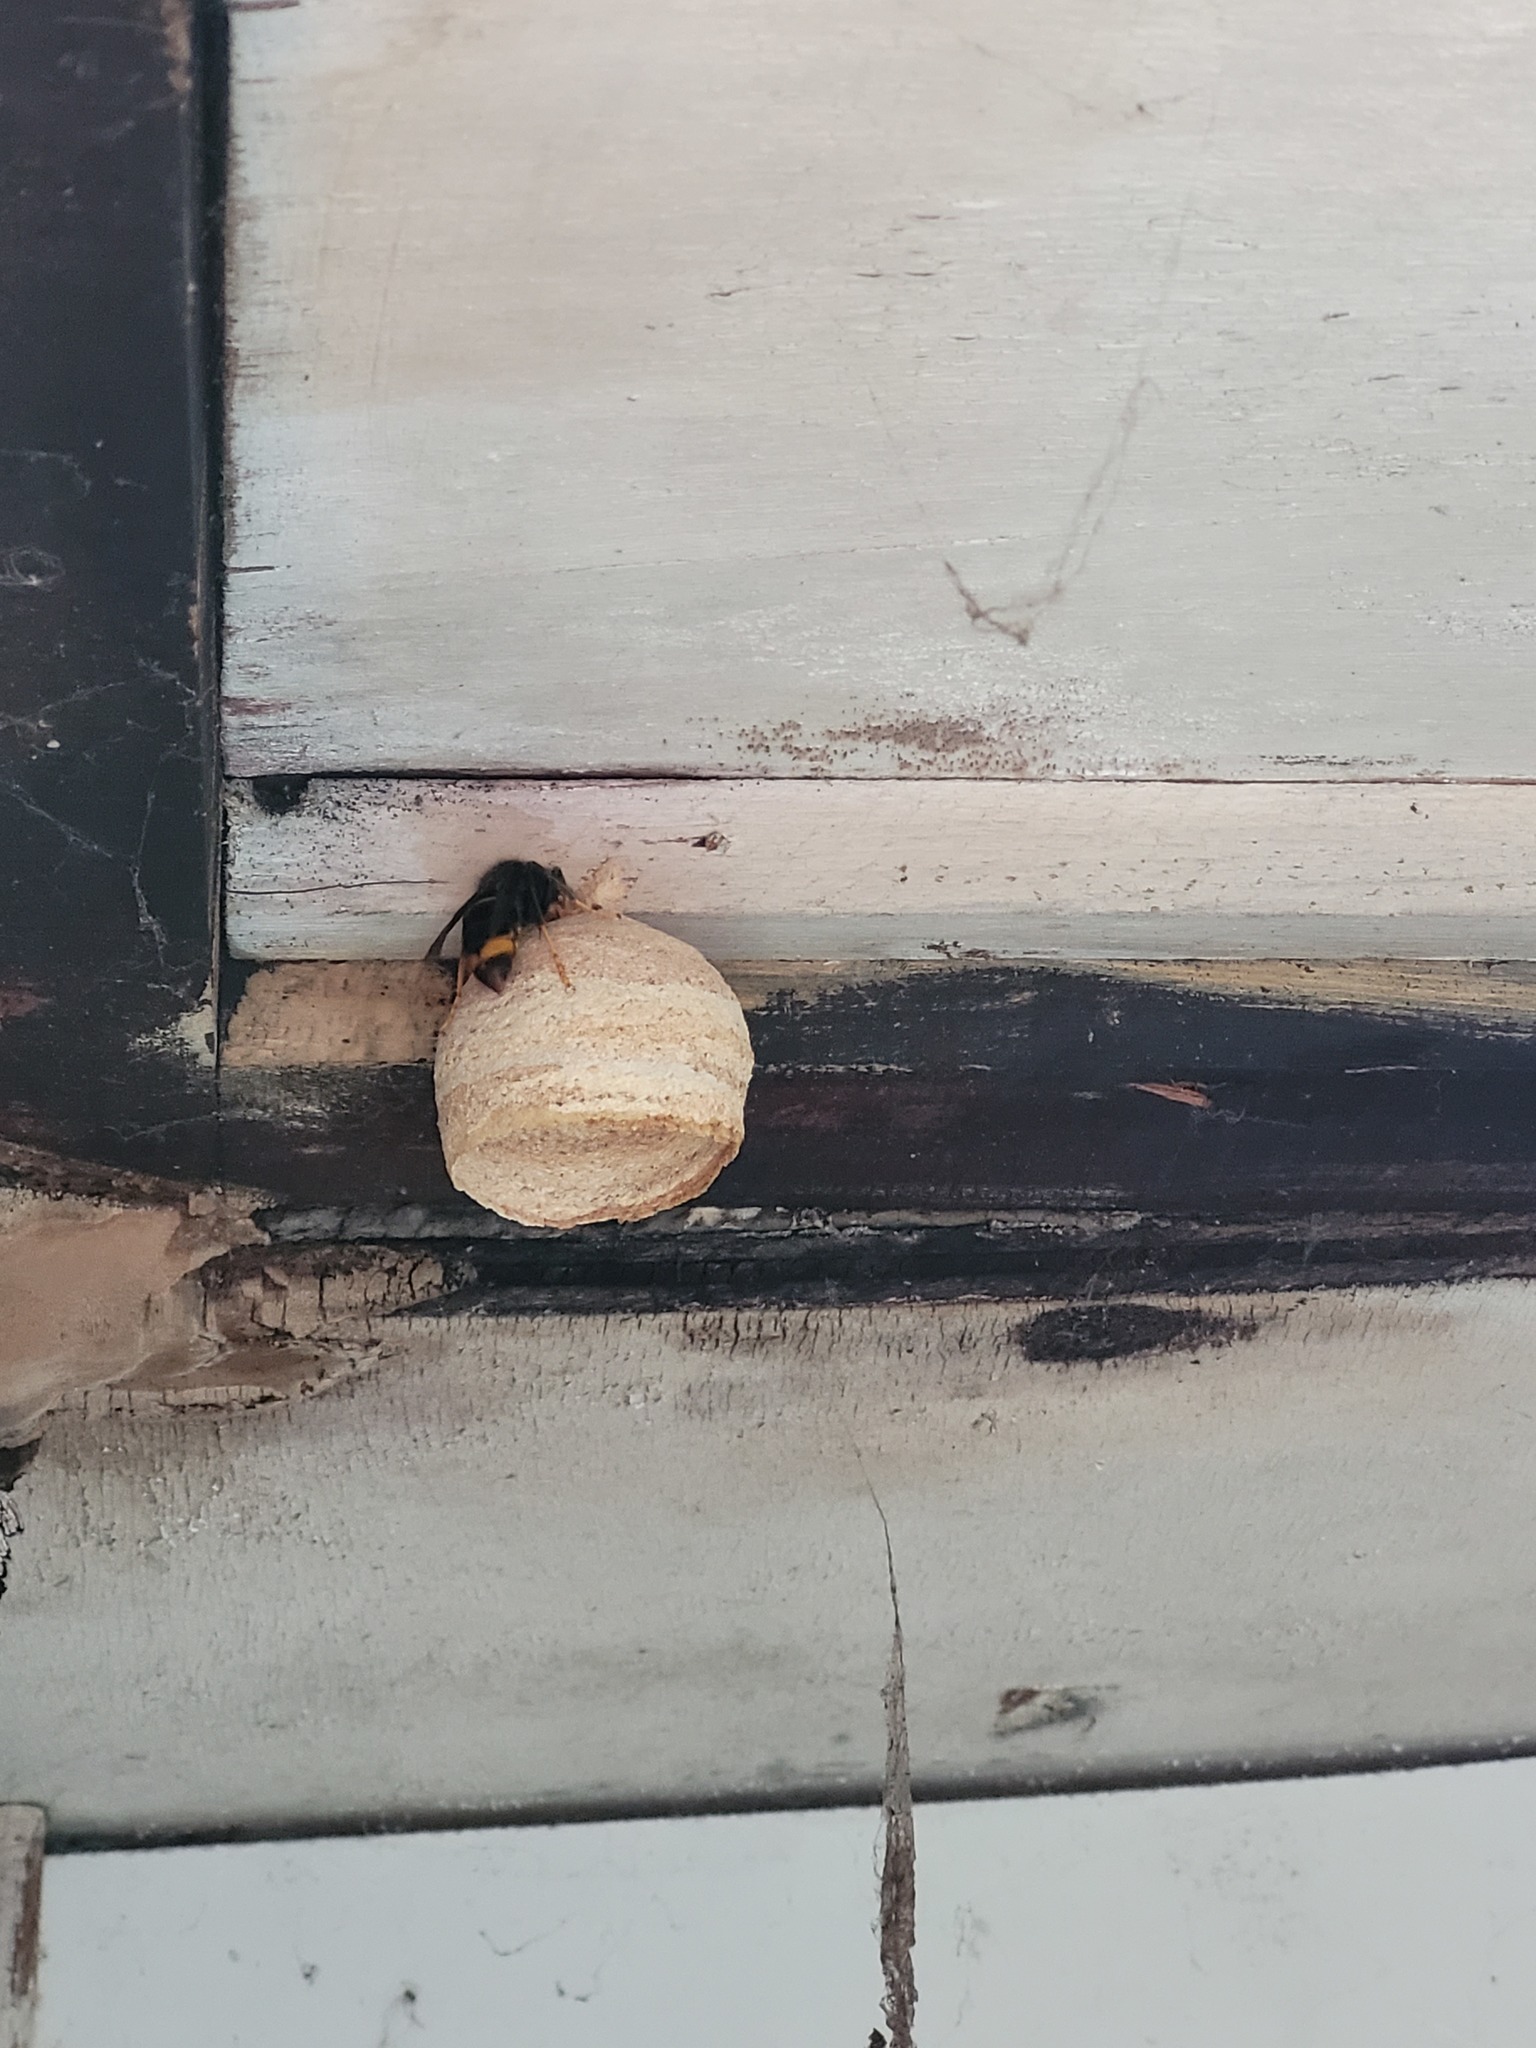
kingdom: Animalia
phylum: Arthropoda
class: Insecta
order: Hymenoptera
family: Vespidae
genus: Vespa
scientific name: Vespa velutina
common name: Asian hornet
